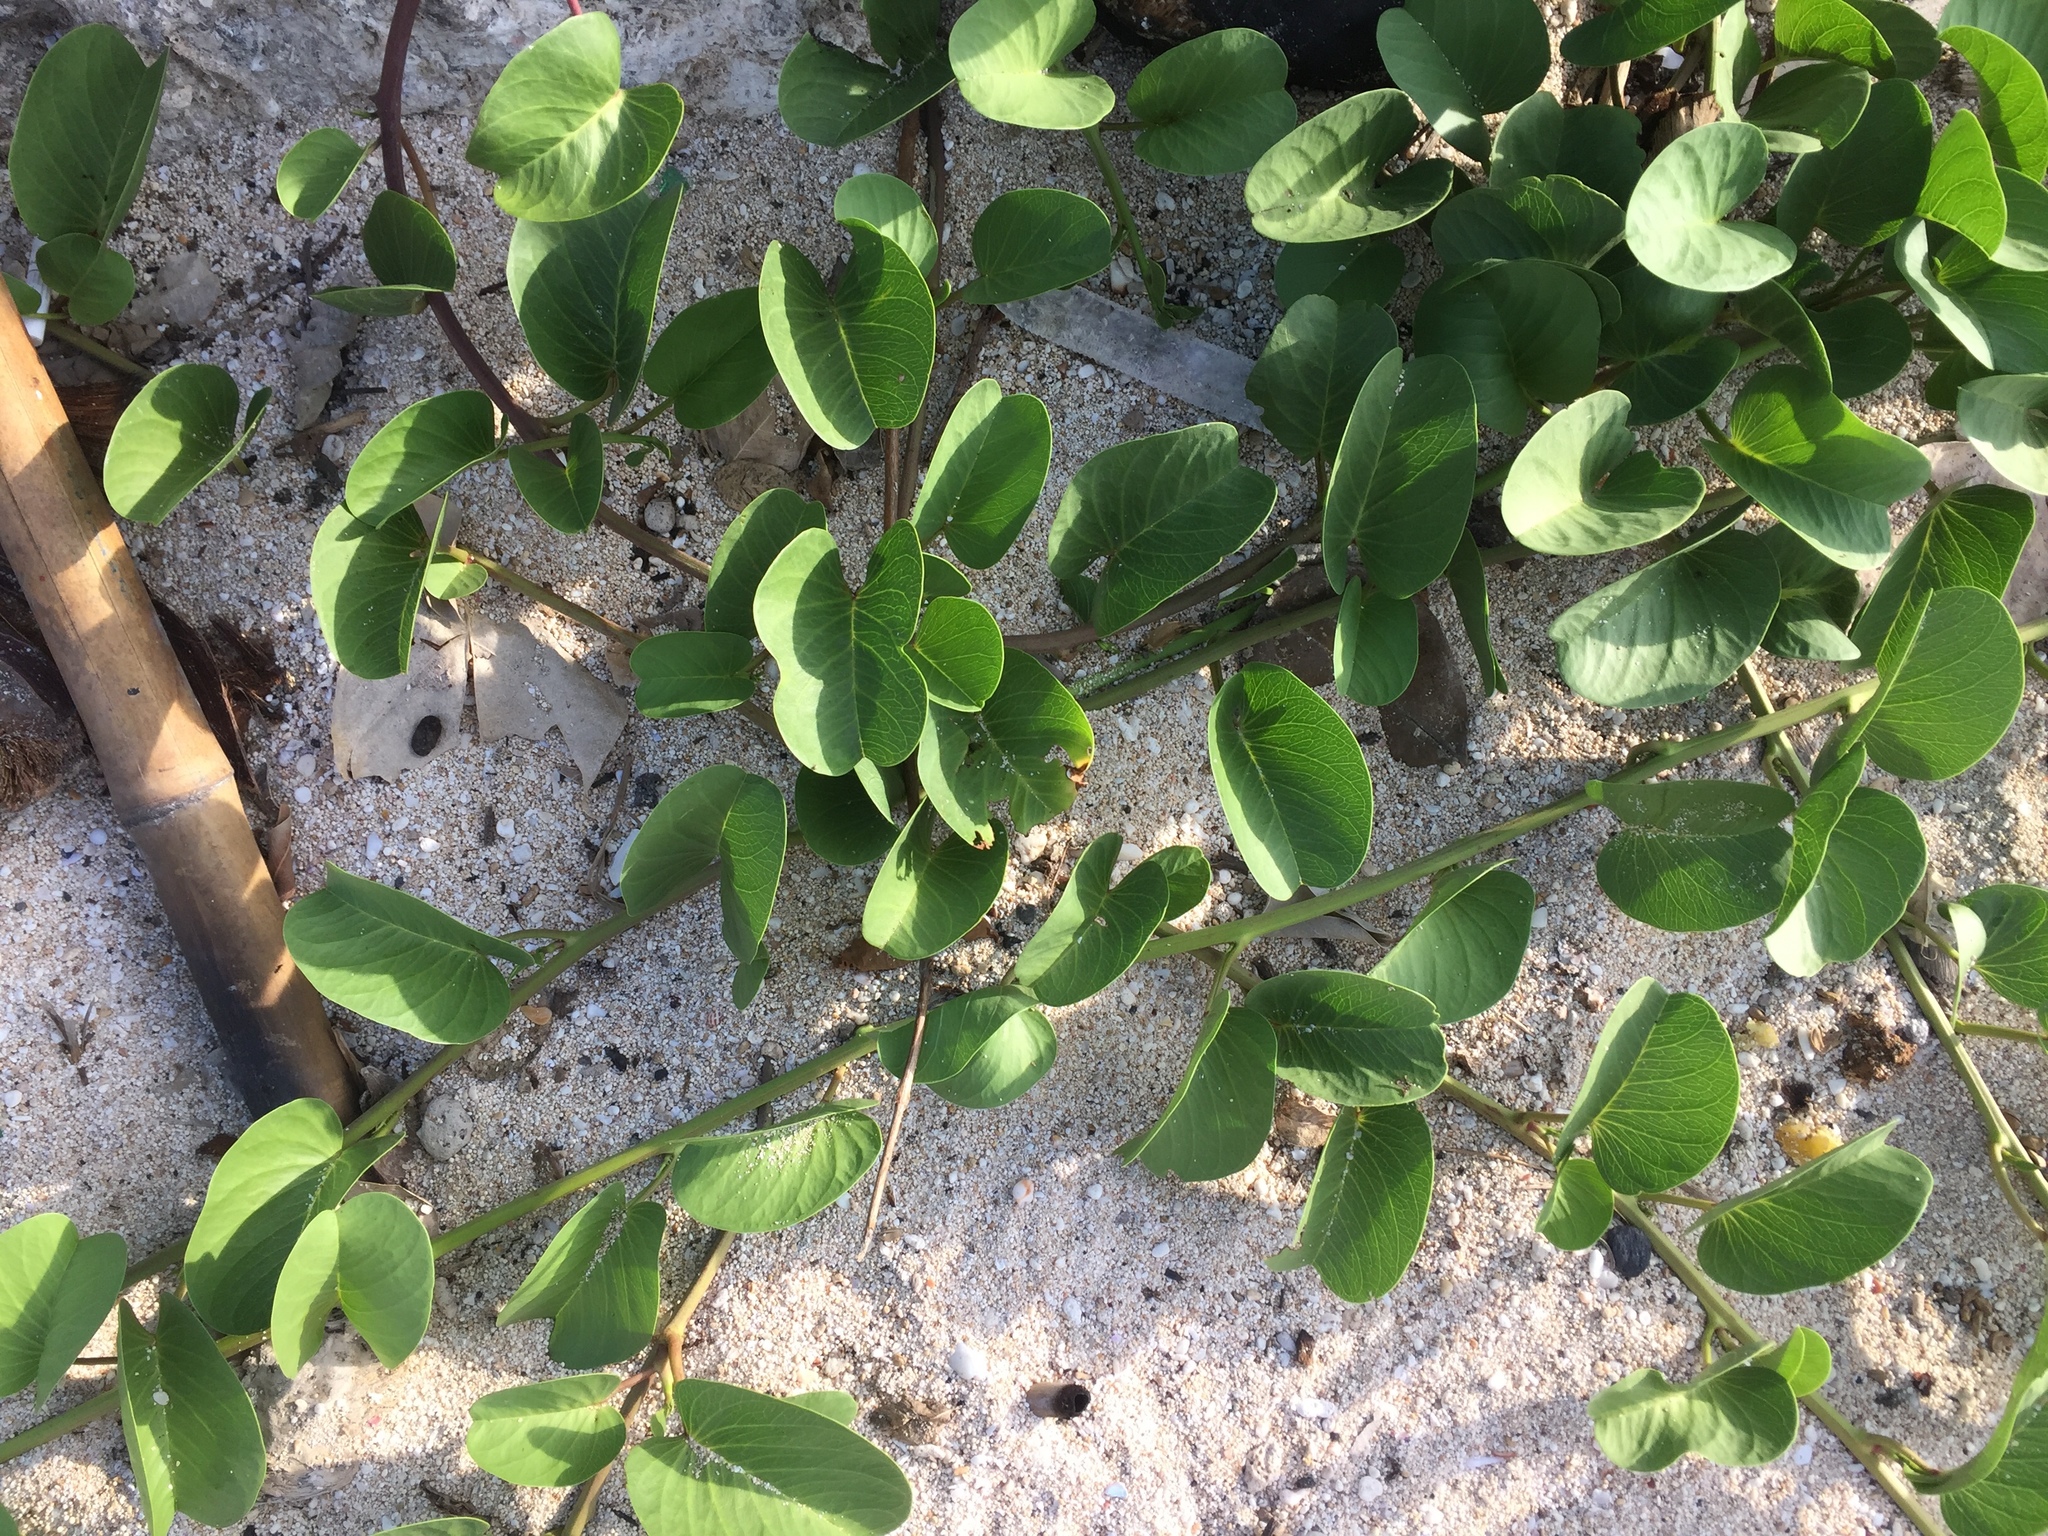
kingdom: Plantae
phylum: Tracheophyta
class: Magnoliopsida
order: Solanales
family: Convolvulaceae
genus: Ipomoea
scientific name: Ipomoea pes-caprae
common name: Beach morning glory
